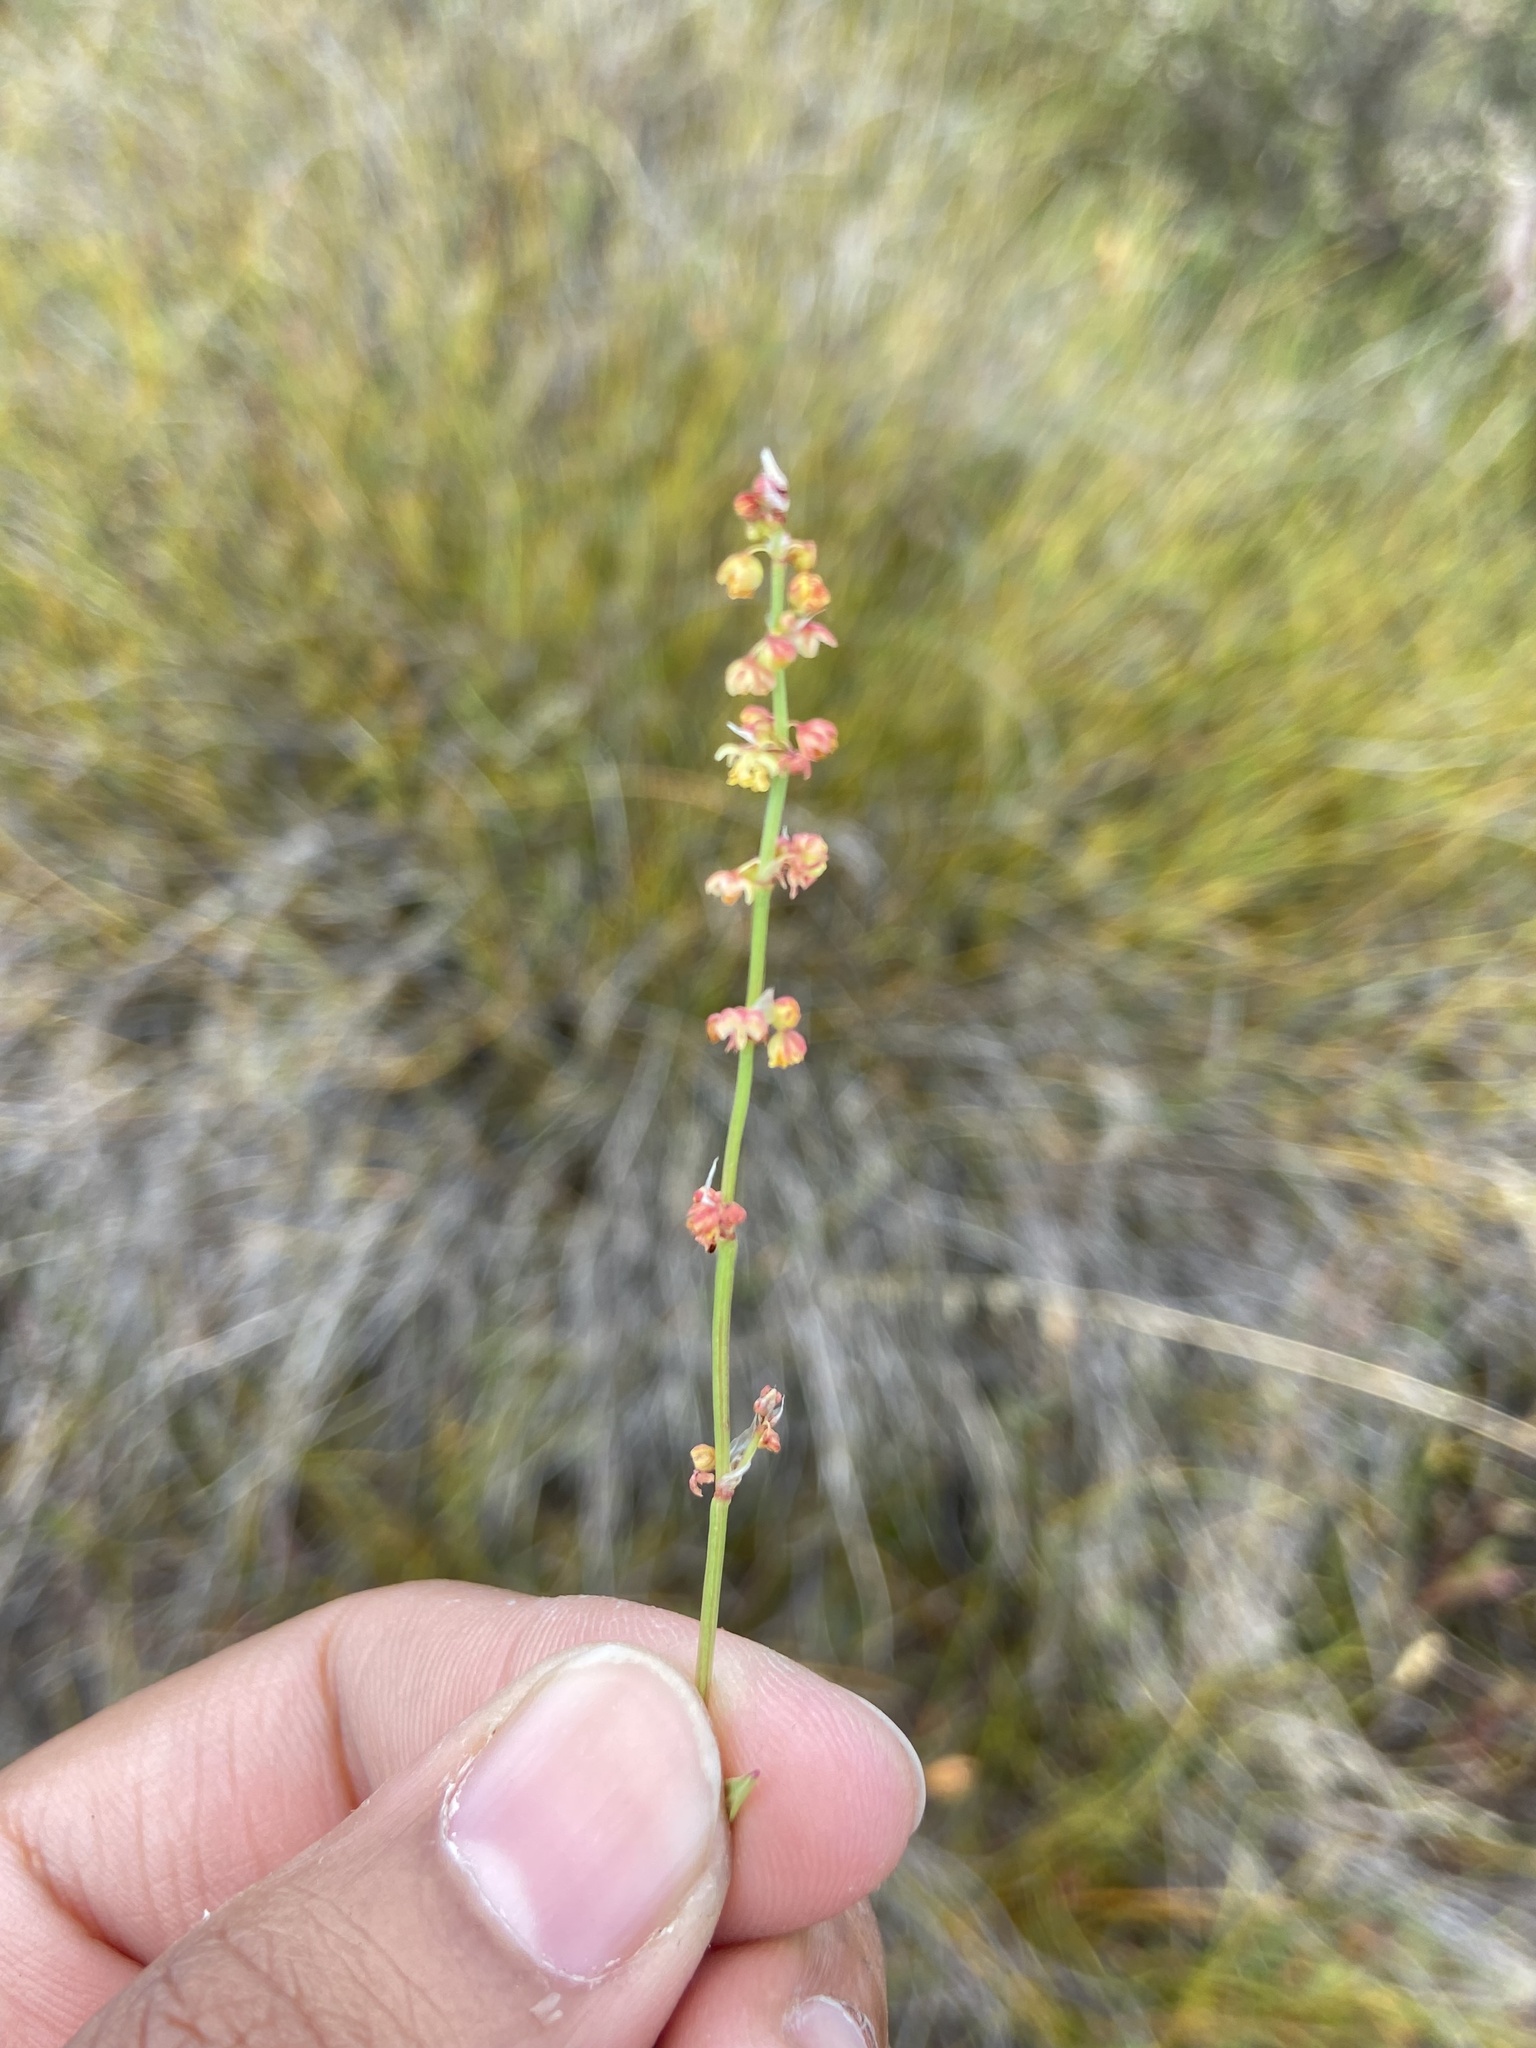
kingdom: Plantae
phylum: Tracheophyta
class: Magnoliopsida
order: Caryophyllales
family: Polygonaceae
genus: Rumex
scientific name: Rumex acetosella
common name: Common sheep sorrel
